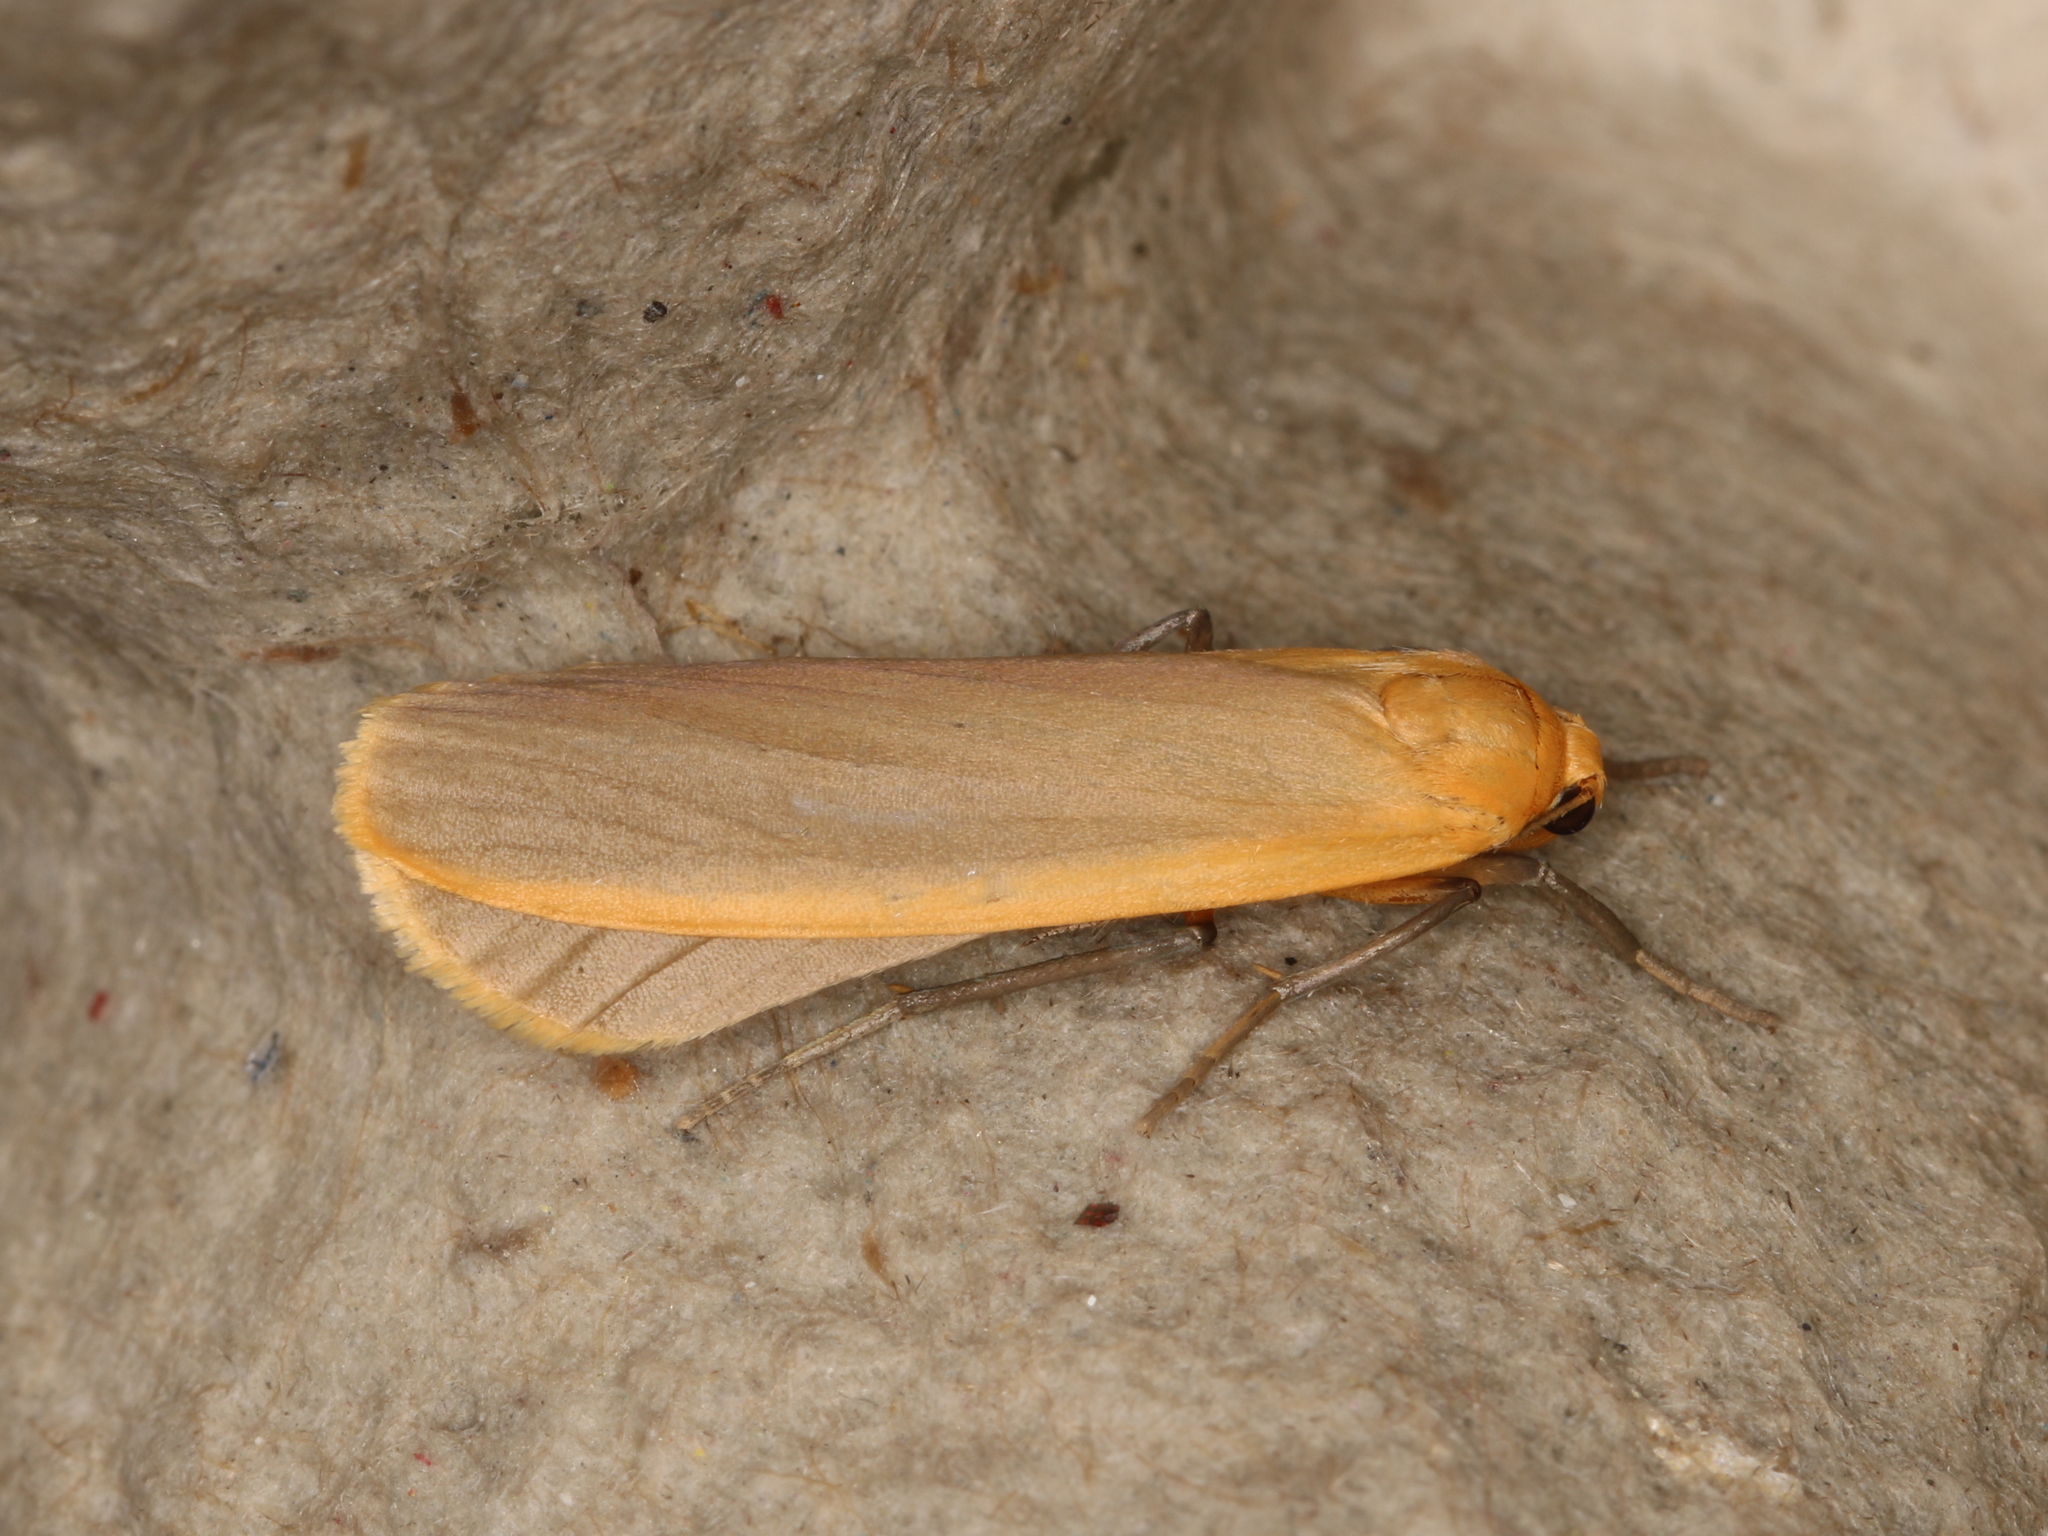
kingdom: Animalia
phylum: Arthropoda
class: Insecta
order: Lepidoptera
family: Erebidae
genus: Katha
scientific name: Katha depressa
